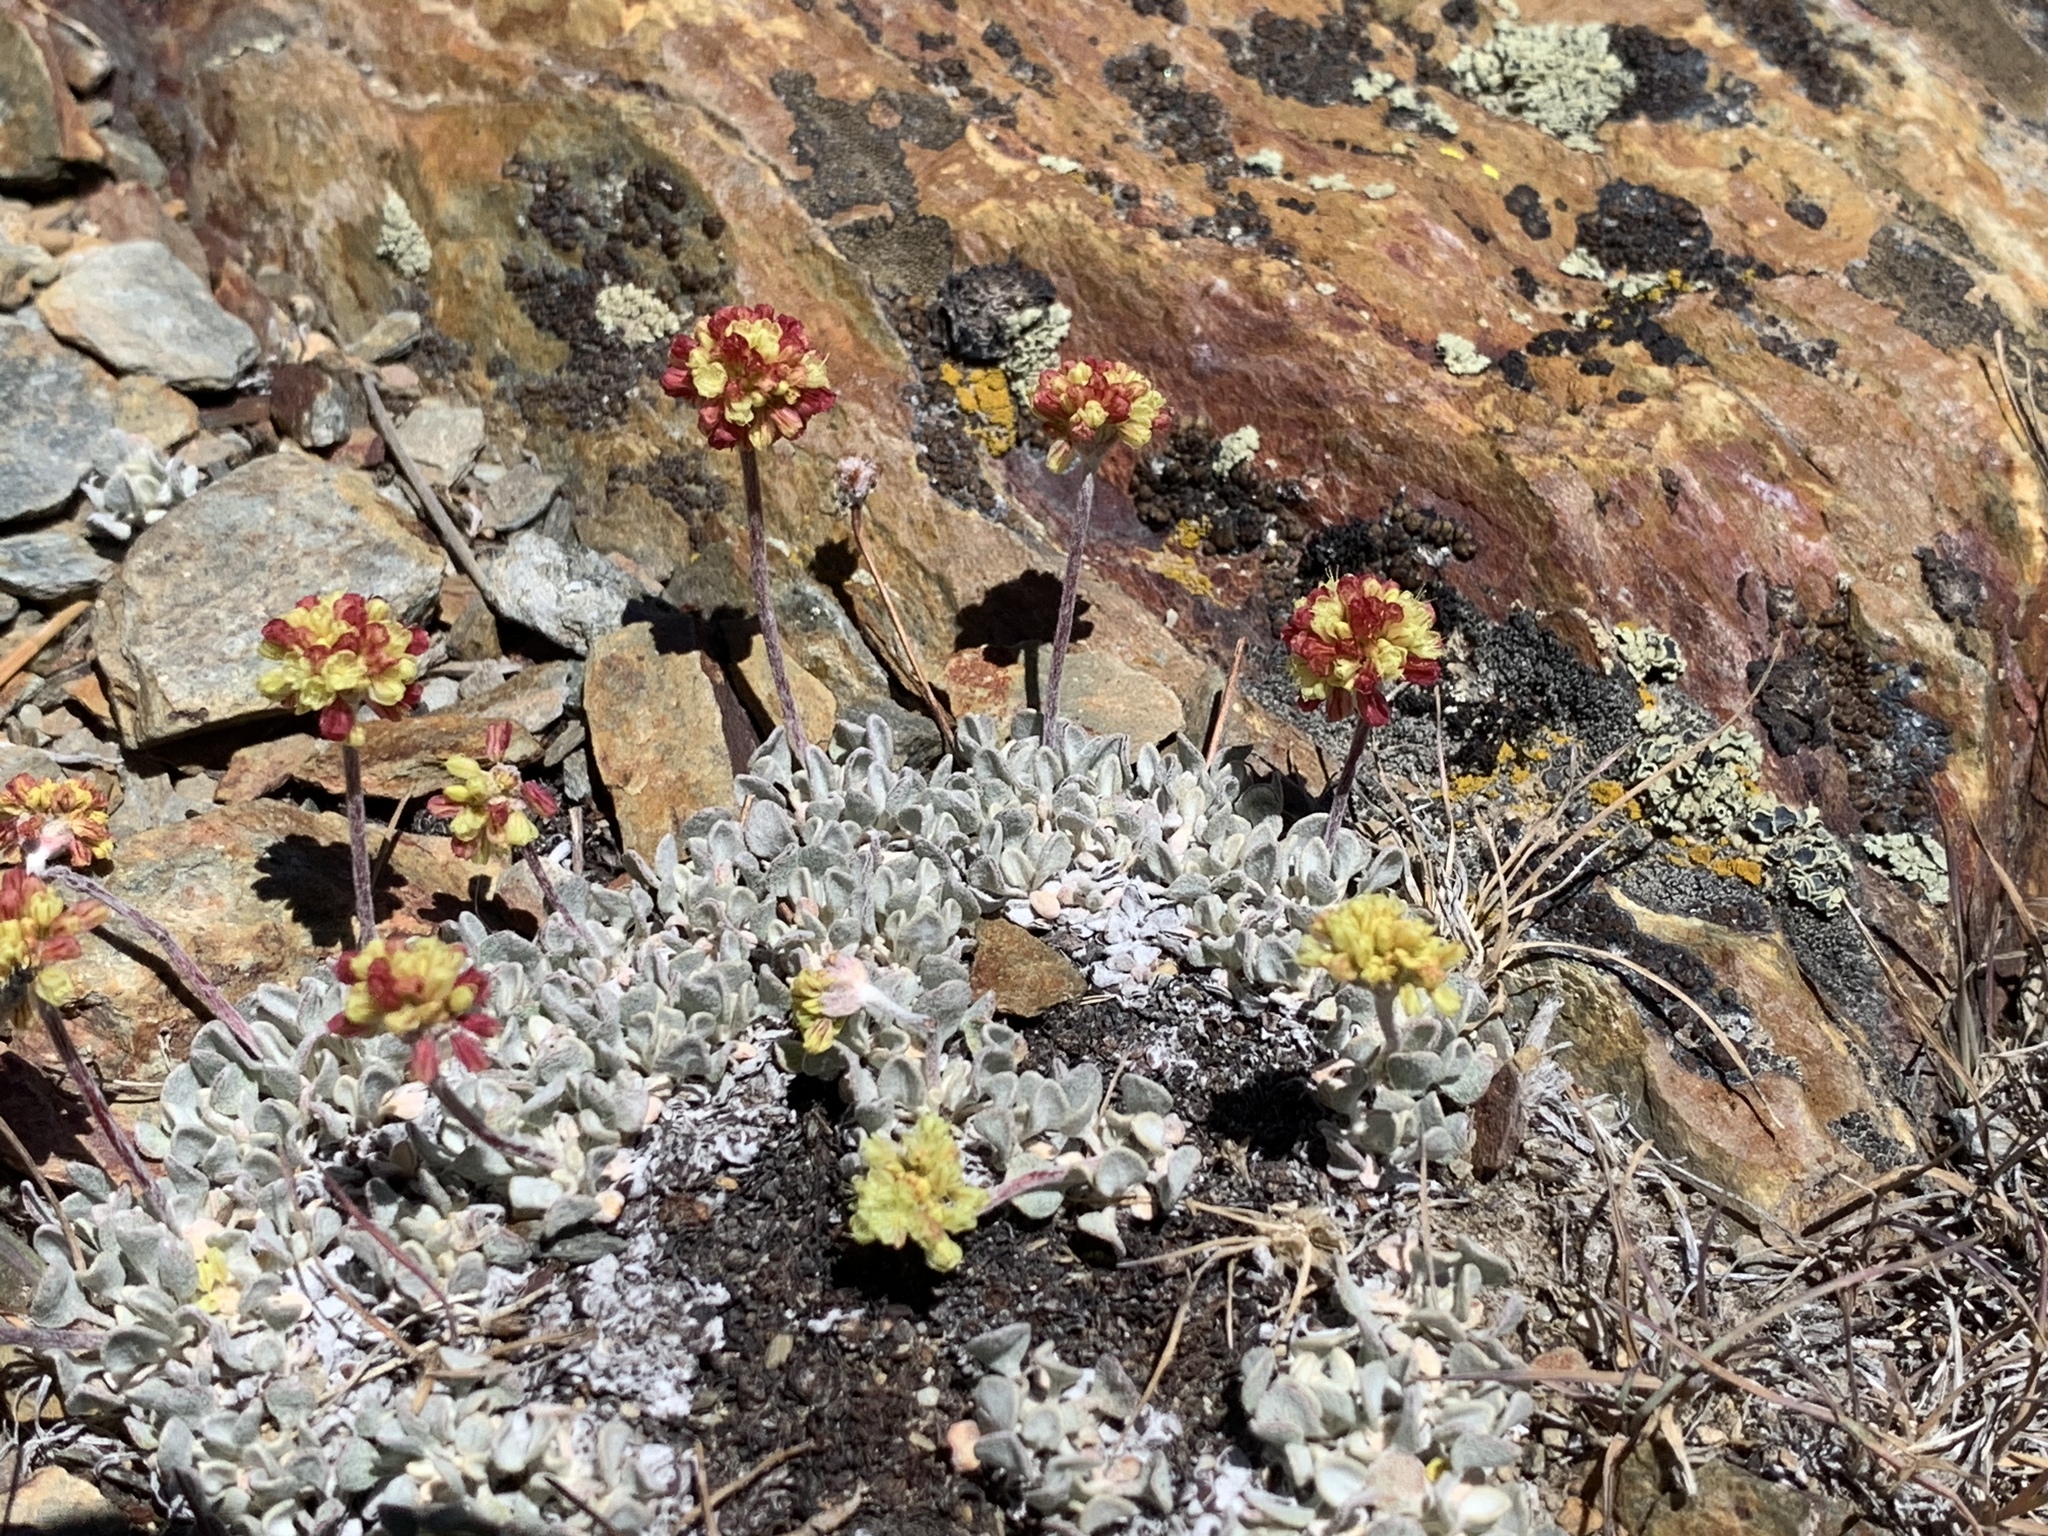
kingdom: Plantae
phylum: Tracheophyta
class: Magnoliopsida
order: Caryophyllales
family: Polygonaceae
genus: Eriogonum
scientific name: Eriogonum ovalifolium
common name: Cushion buckwheat
